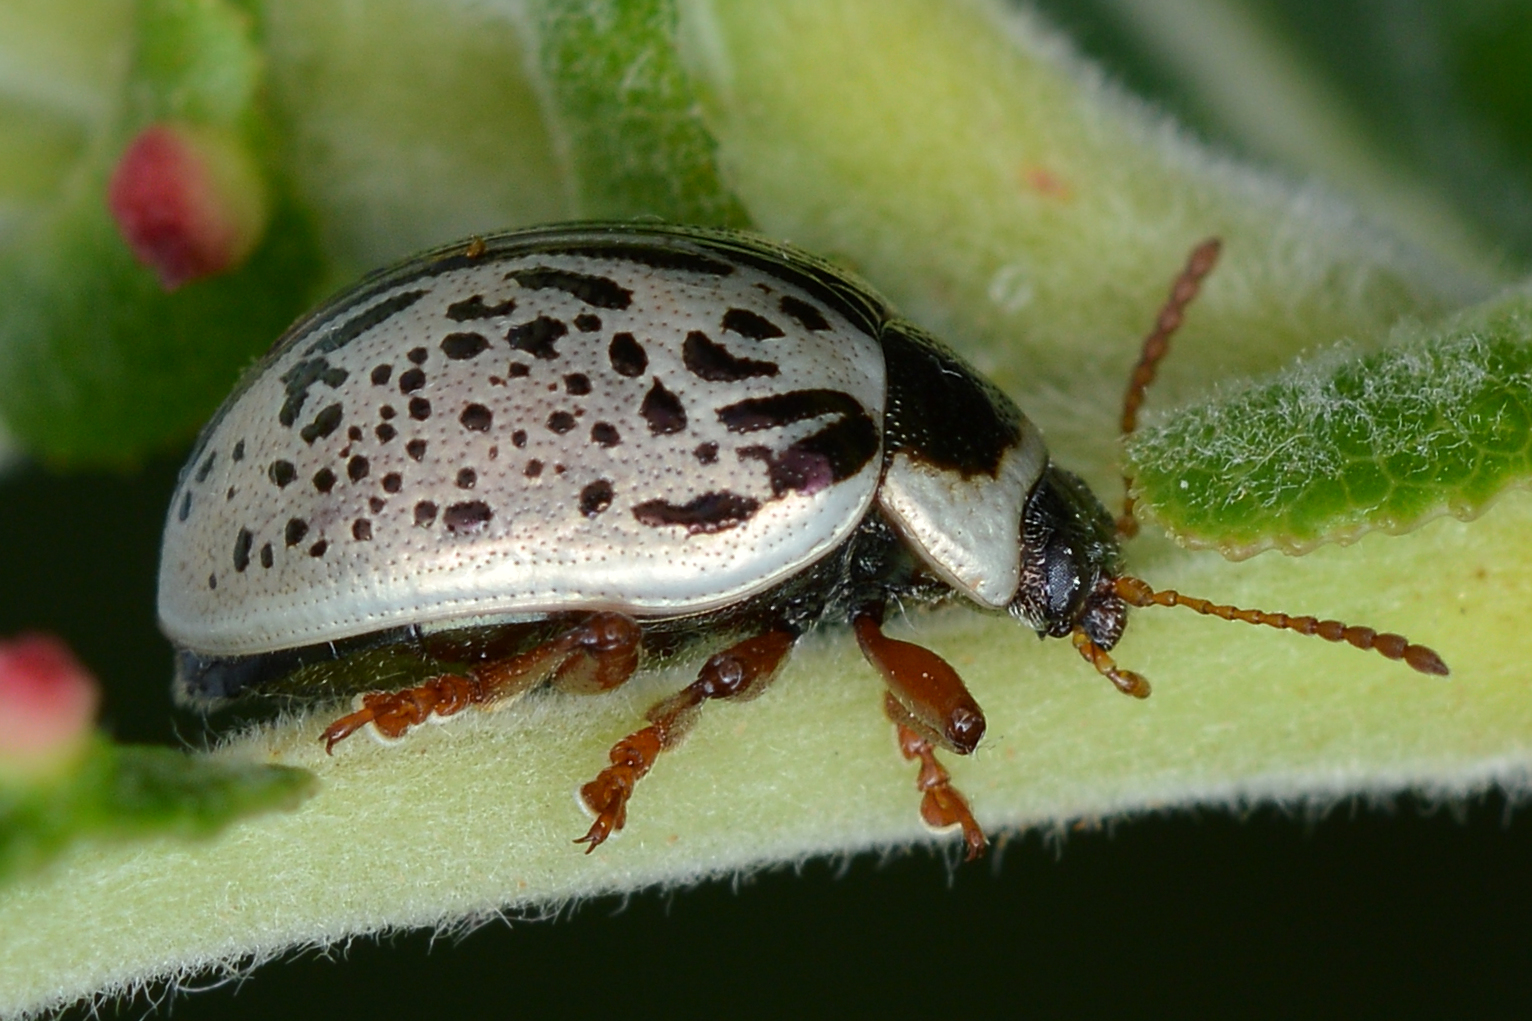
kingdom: Animalia
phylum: Arthropoda
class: Insecta
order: Coleoptera
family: Chrysomelidae
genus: Calligrapha
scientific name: Calligrapha multipunctata
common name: Common willow calligrapher beetle
